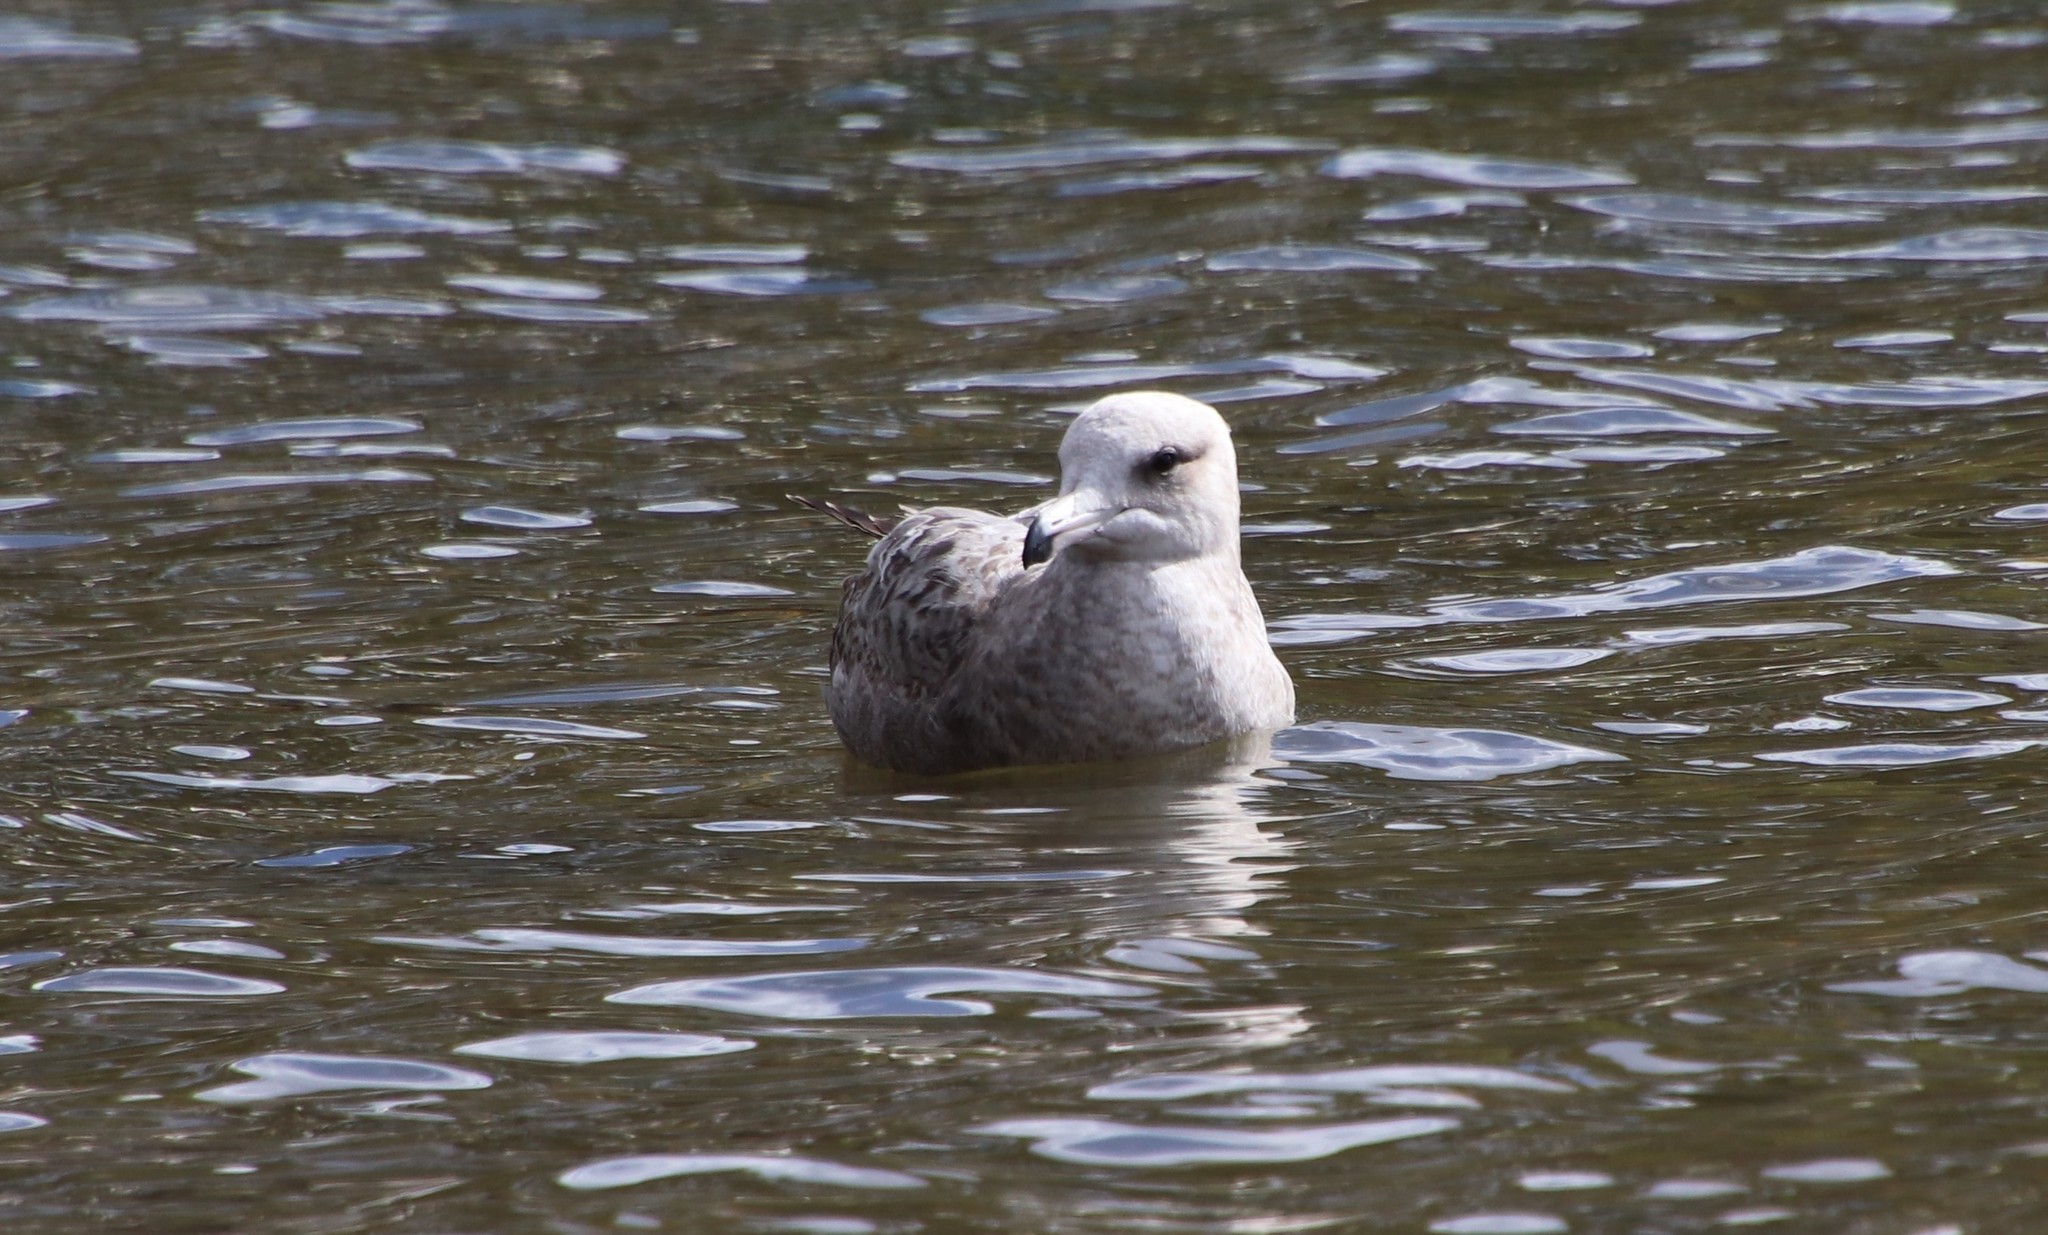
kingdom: Animalia
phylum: Chordata
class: Aves
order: Charadriiformes
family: Laridae
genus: Larus
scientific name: Larus californicus
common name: California gull
